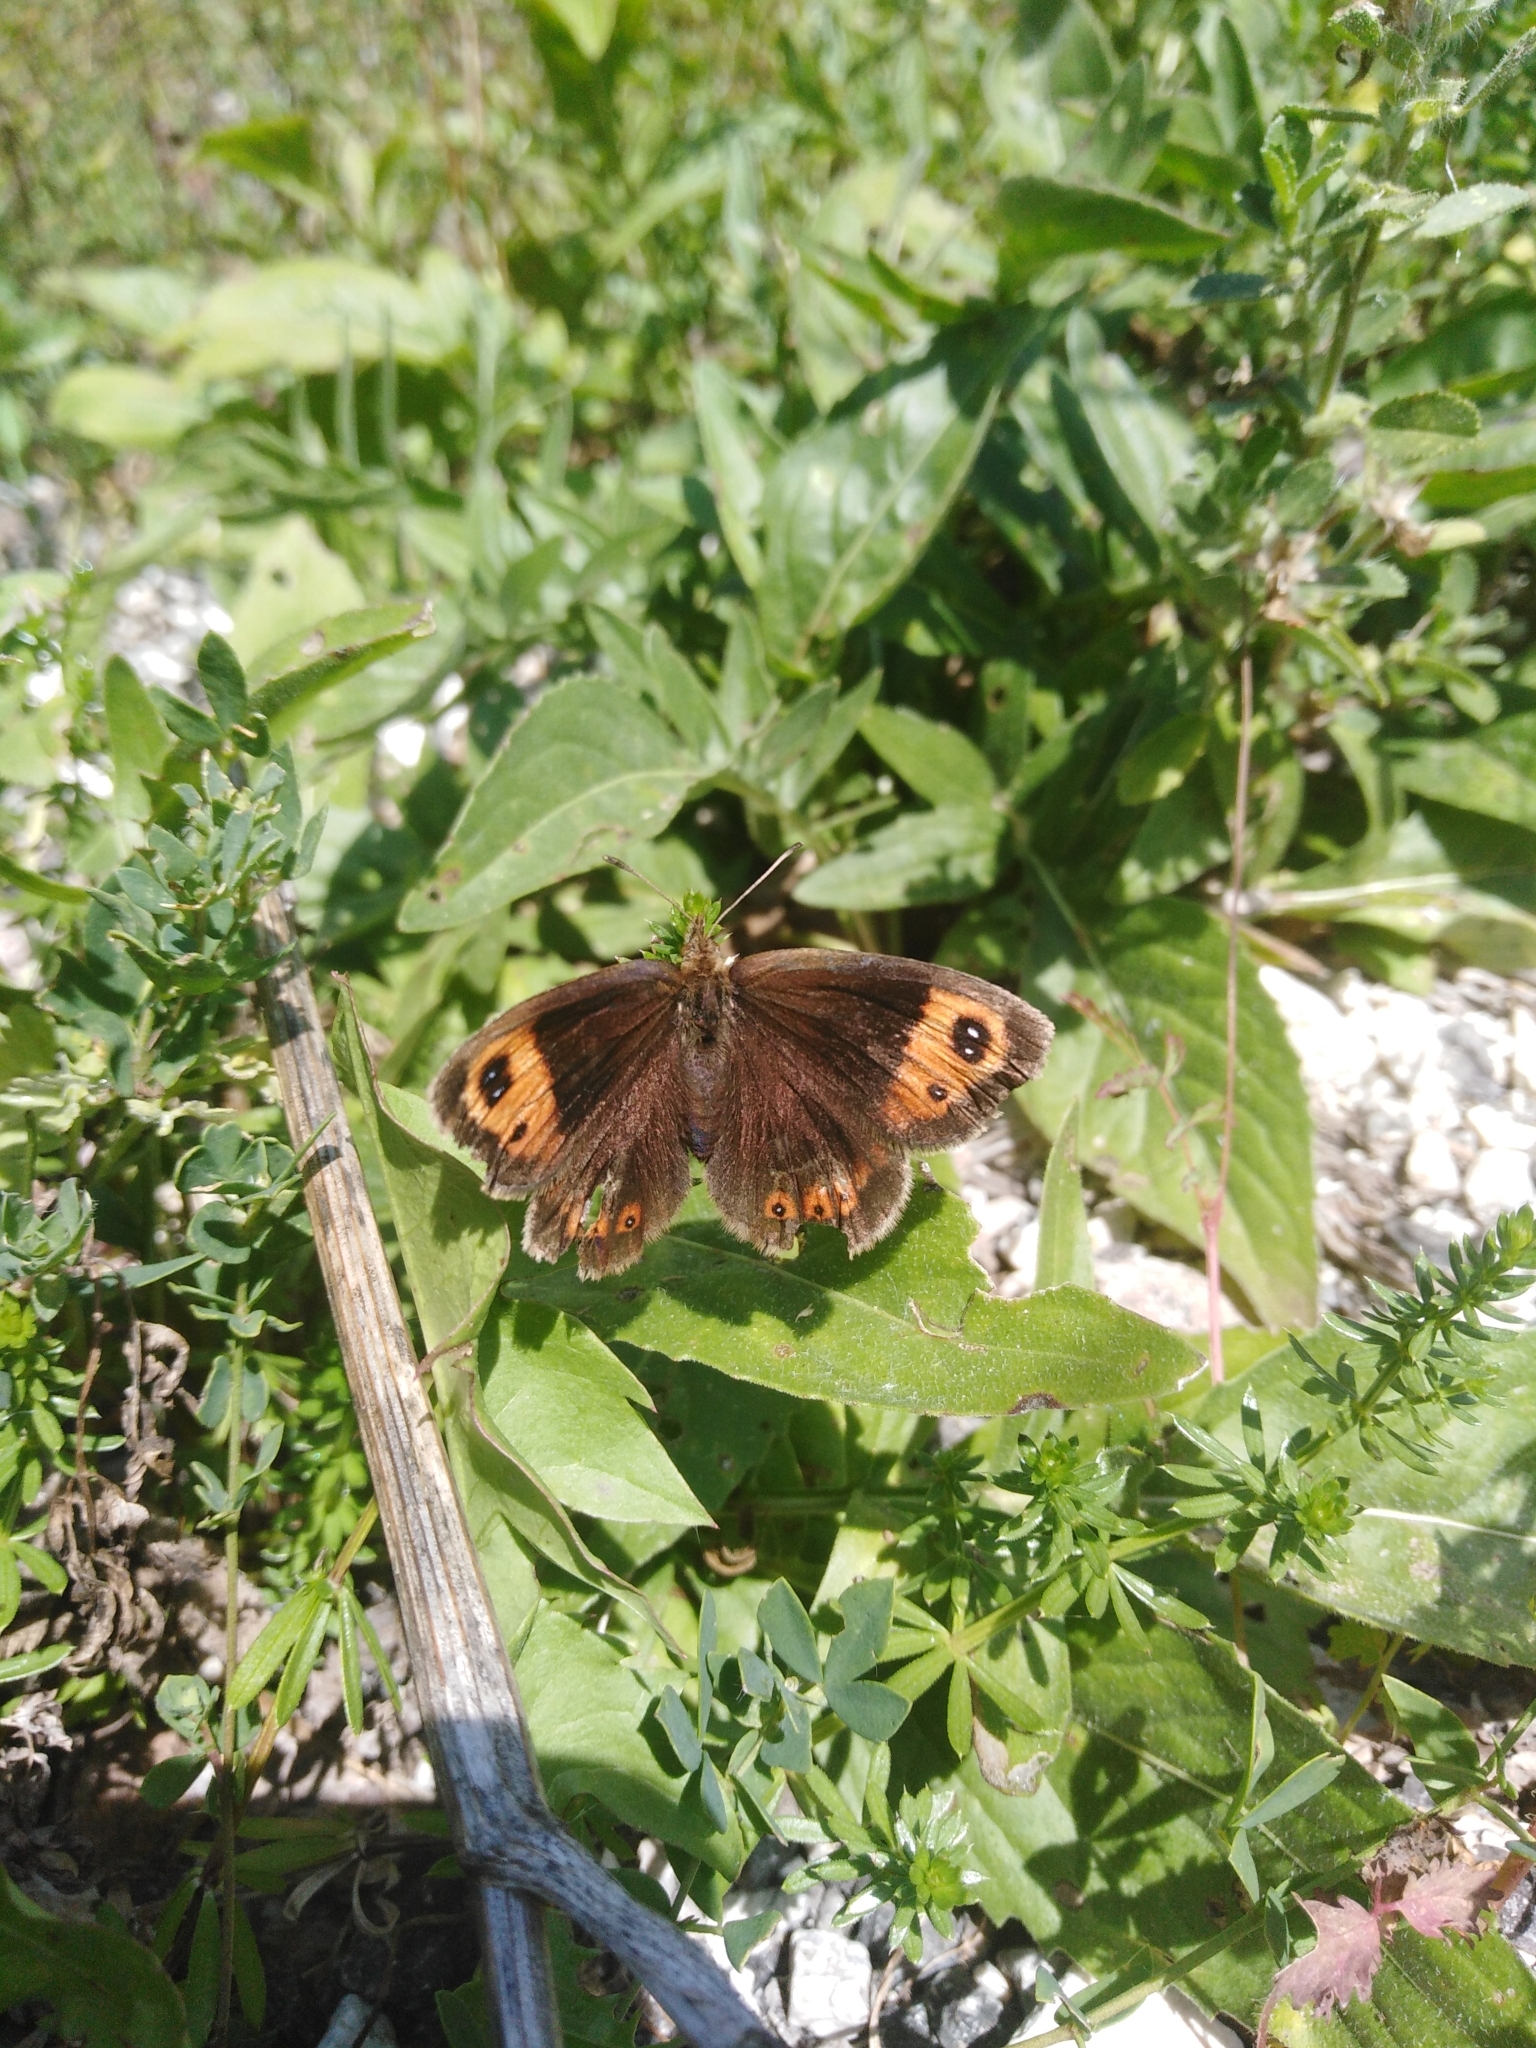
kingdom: Animalia
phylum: Arthropoda
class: Insecta
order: Lepidoptera
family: Nymphalidae
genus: Erebia
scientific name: Erebia neoridas
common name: Autumn ringlet
